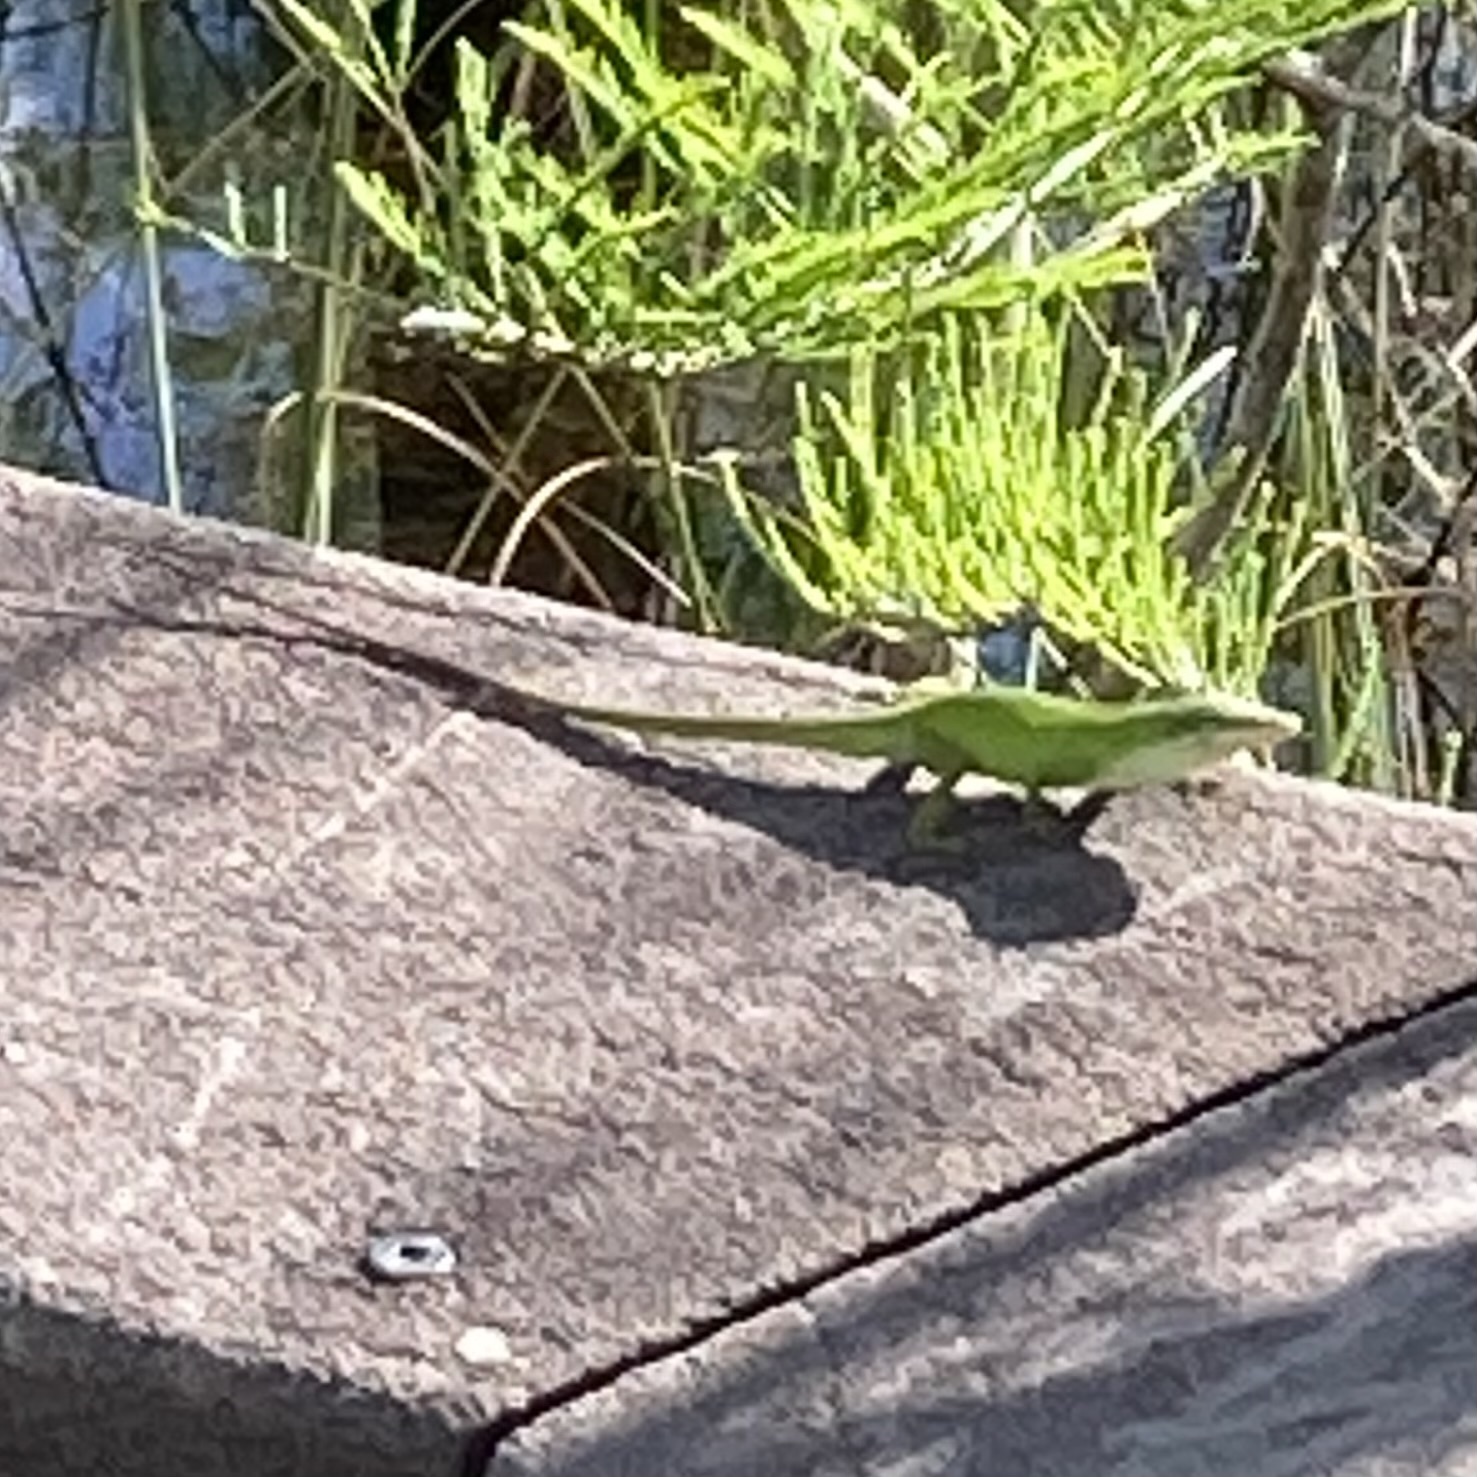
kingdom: Animalia
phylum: Chordata
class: Squamata
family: Dactyloidae
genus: Anolis
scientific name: Anolis carolinensis
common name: Green anole
